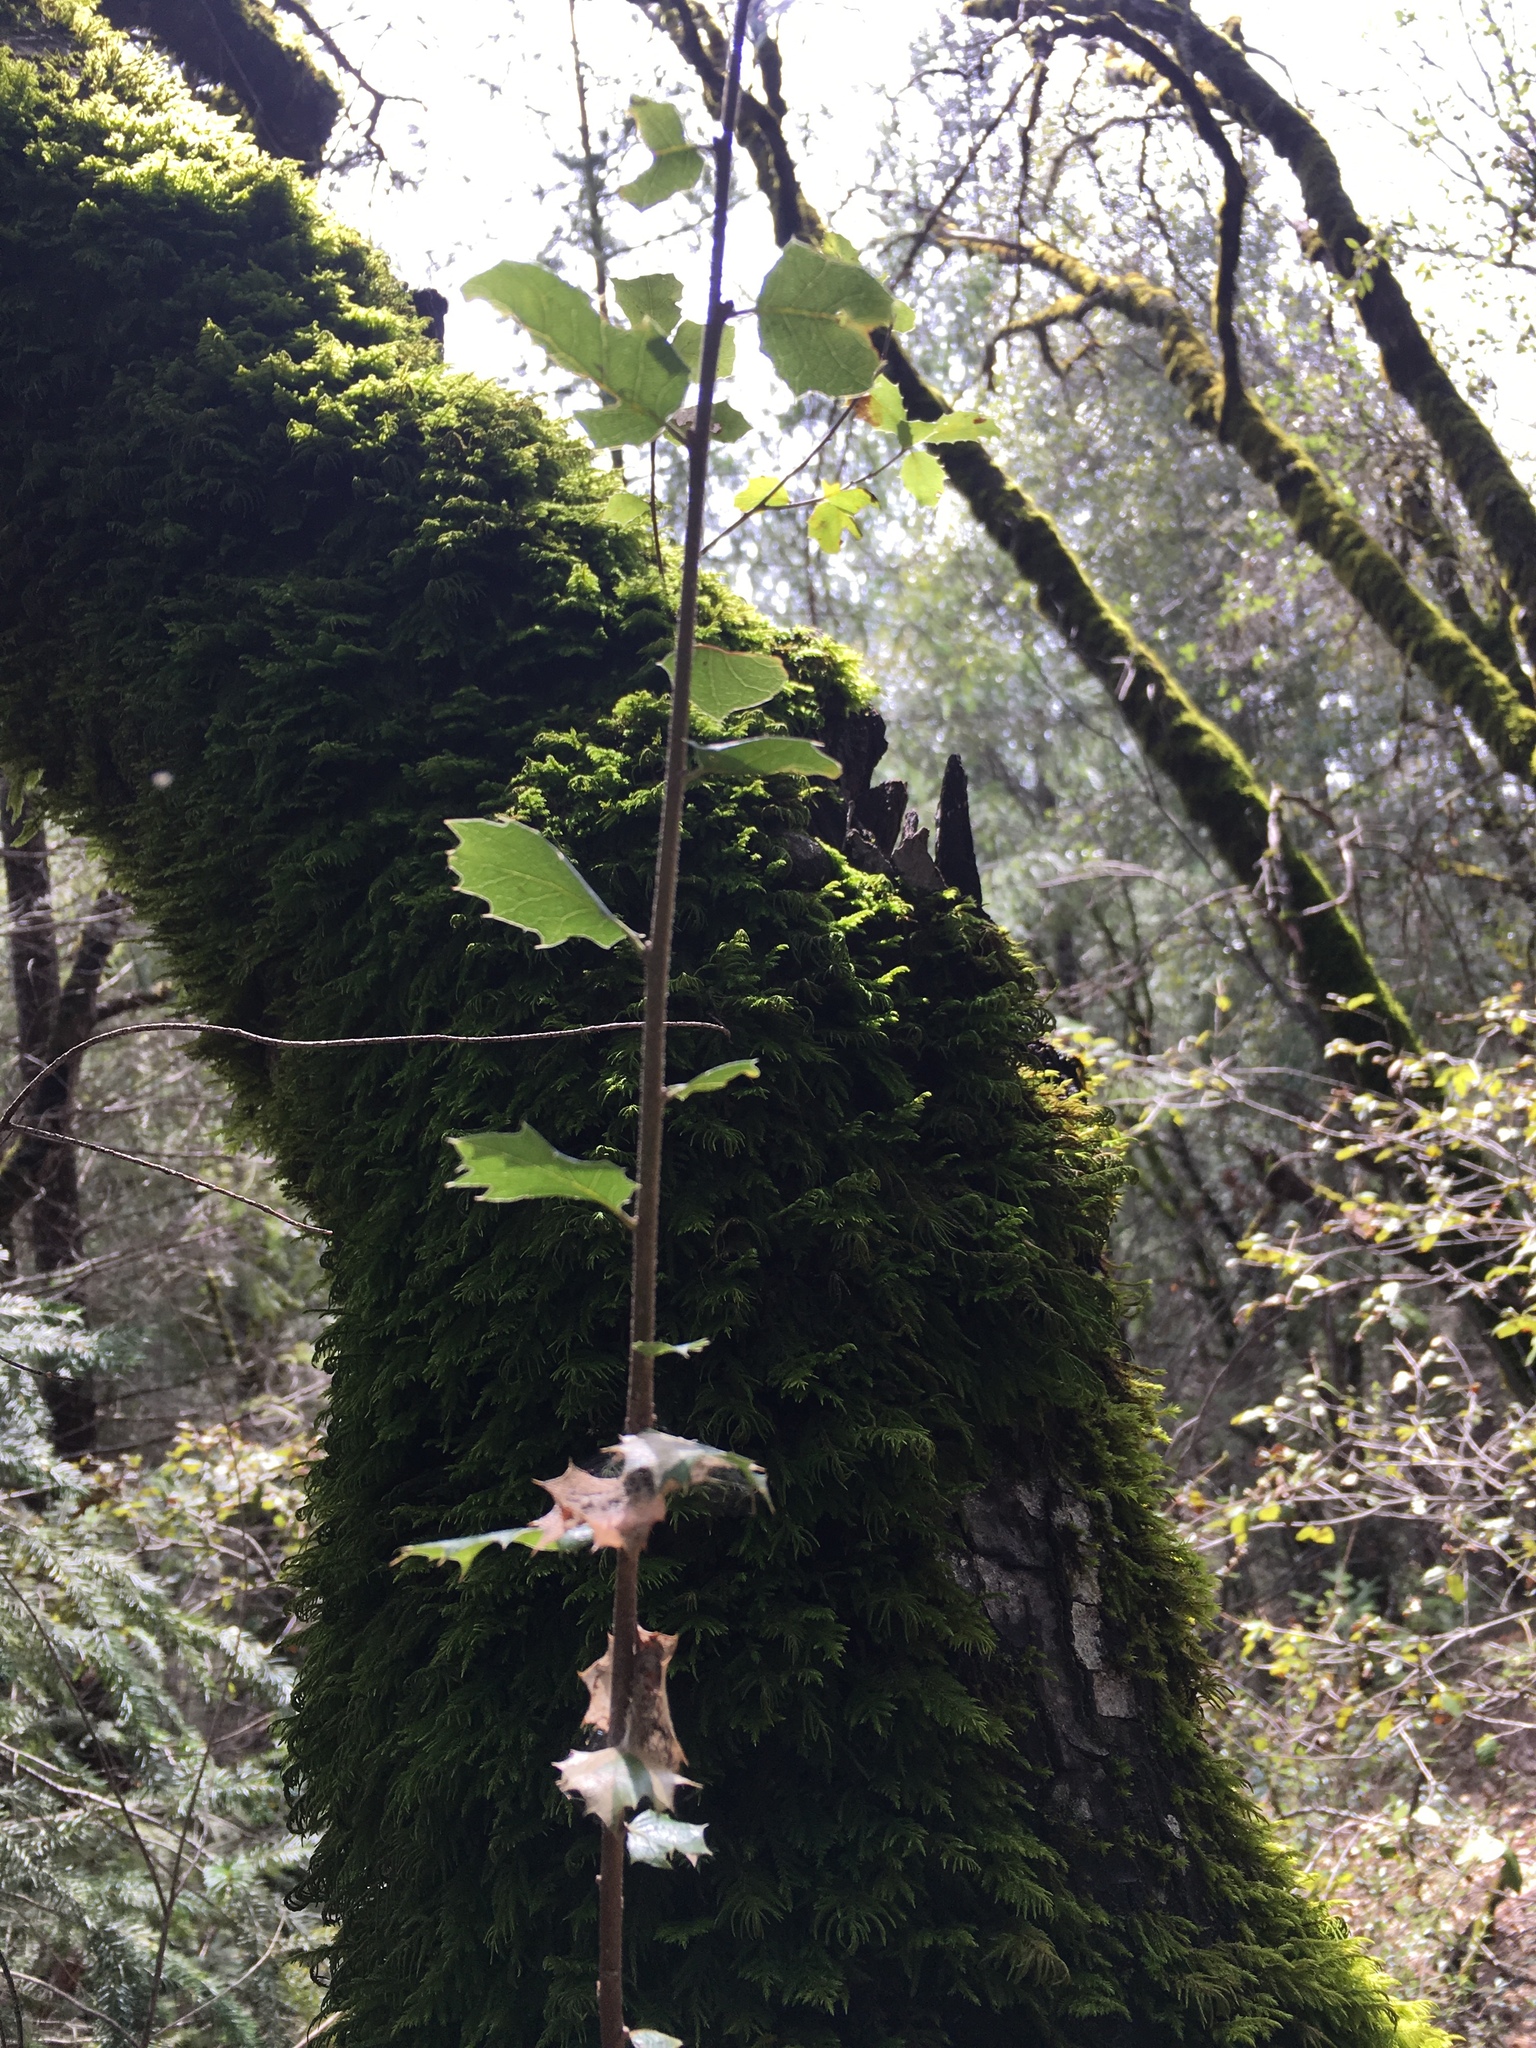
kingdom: Plantae
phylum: Tracheophyta
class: Magnoliopsida
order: Fagales
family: Fagaceae
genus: Quercus
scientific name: Quercus wislizeni
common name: Interior live oak
